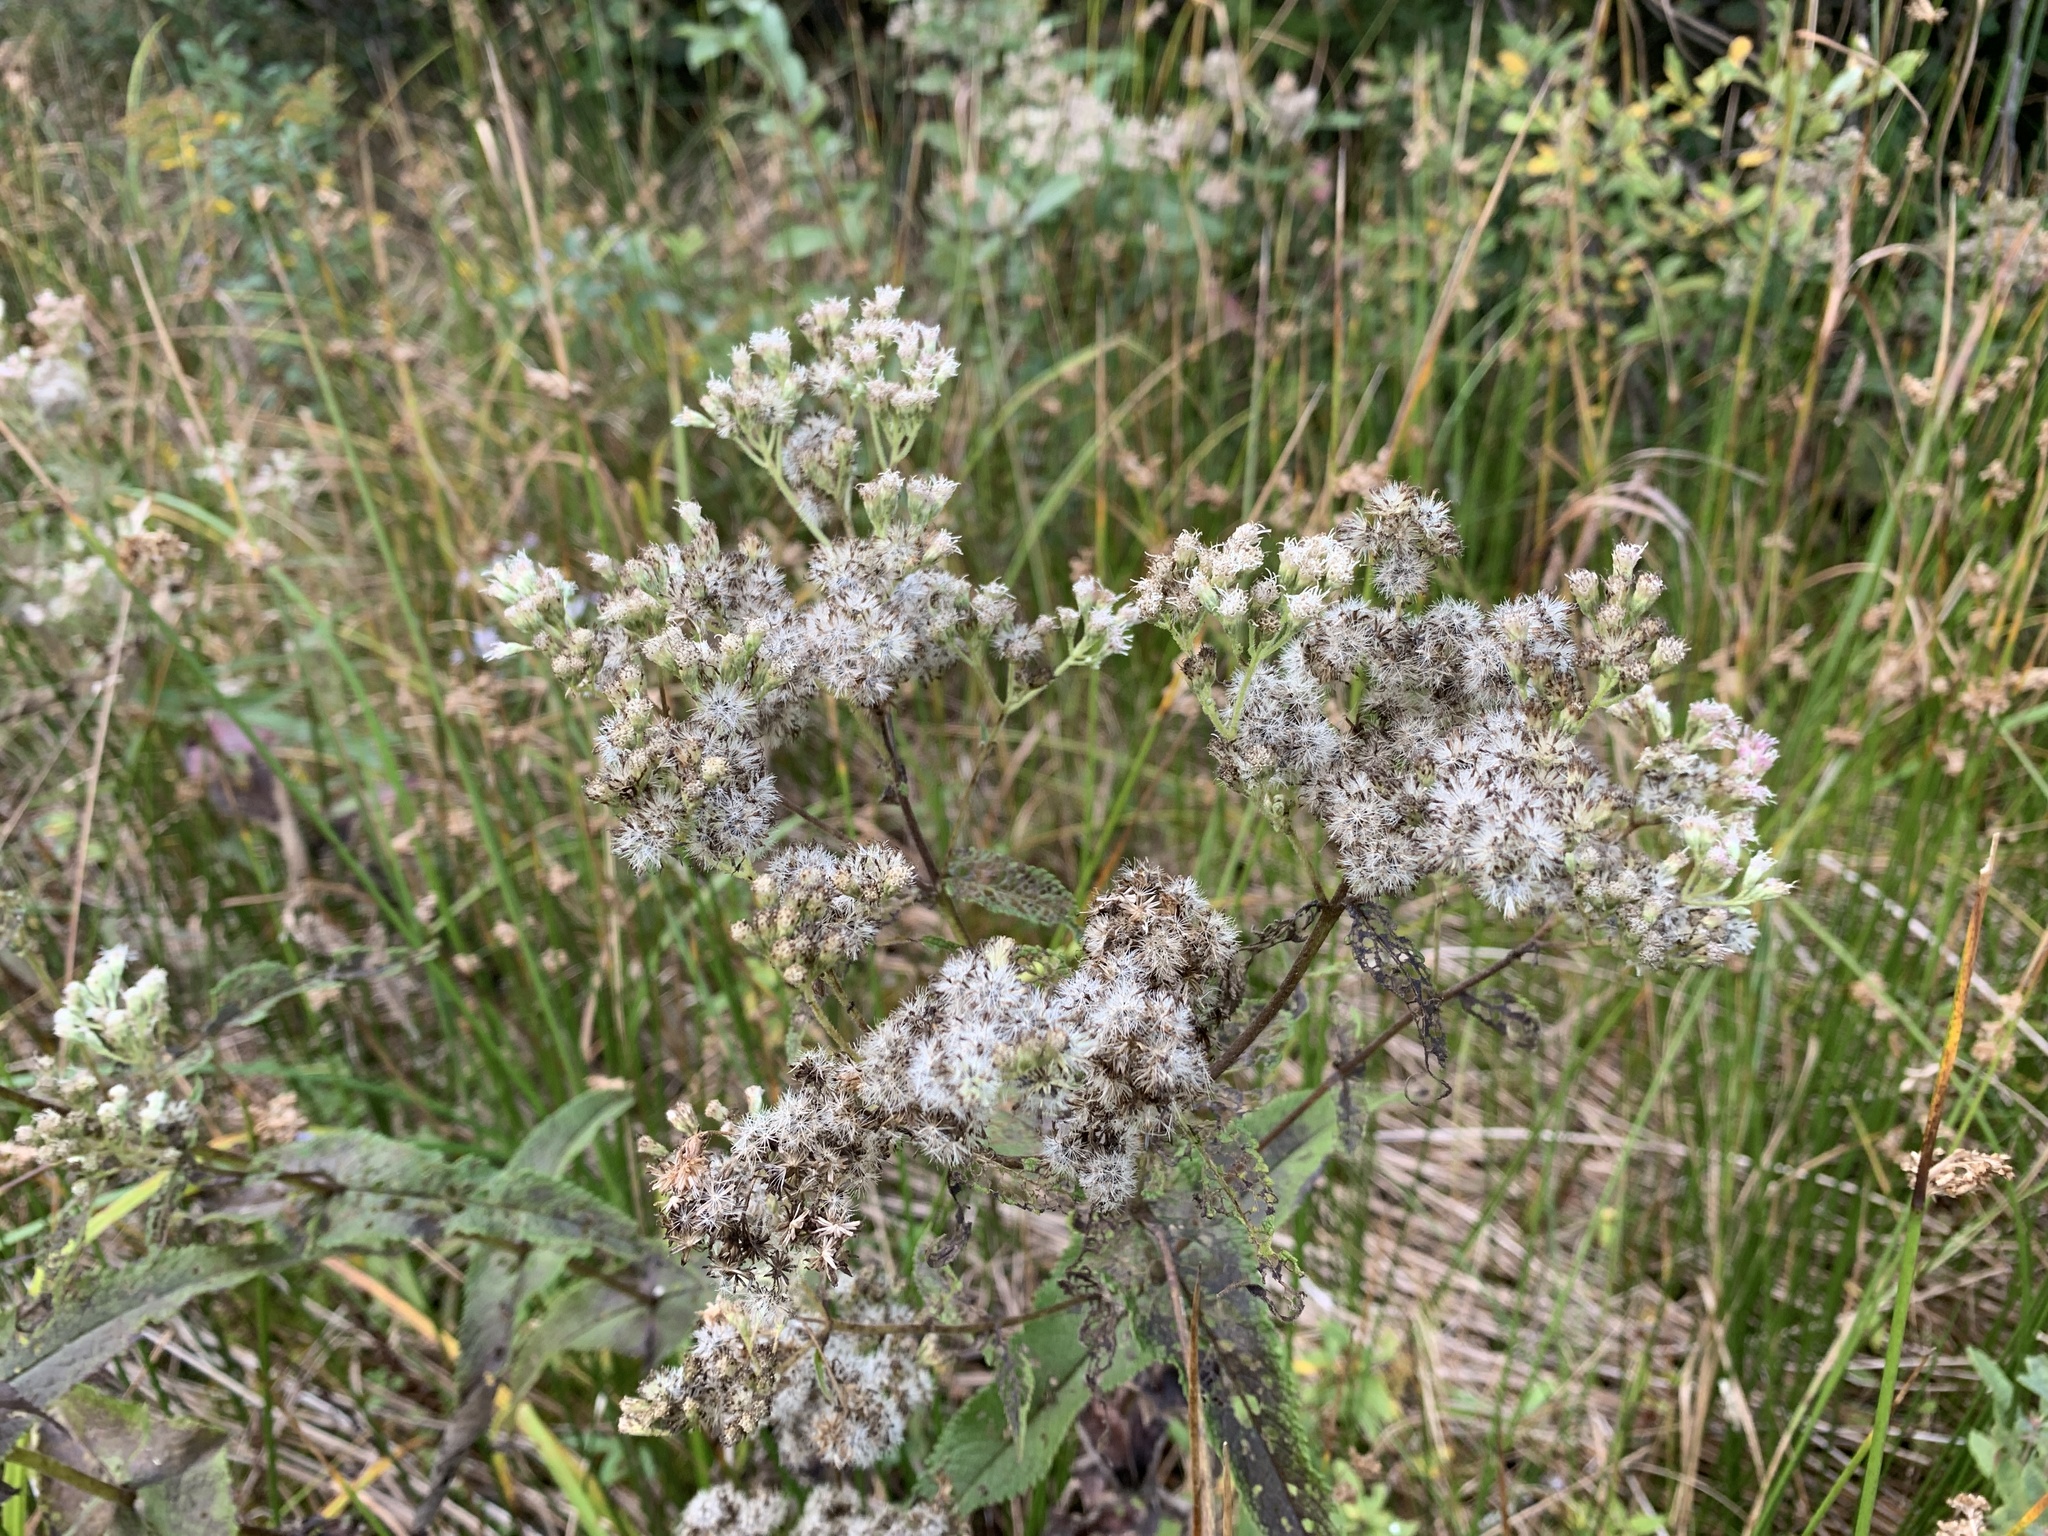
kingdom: Plantae
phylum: Tracheophyta
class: Magnoliopsida
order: Asterales
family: Asteraceae
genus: Eupatorium
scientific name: Eupatorium perfoliatum
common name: Boneset
